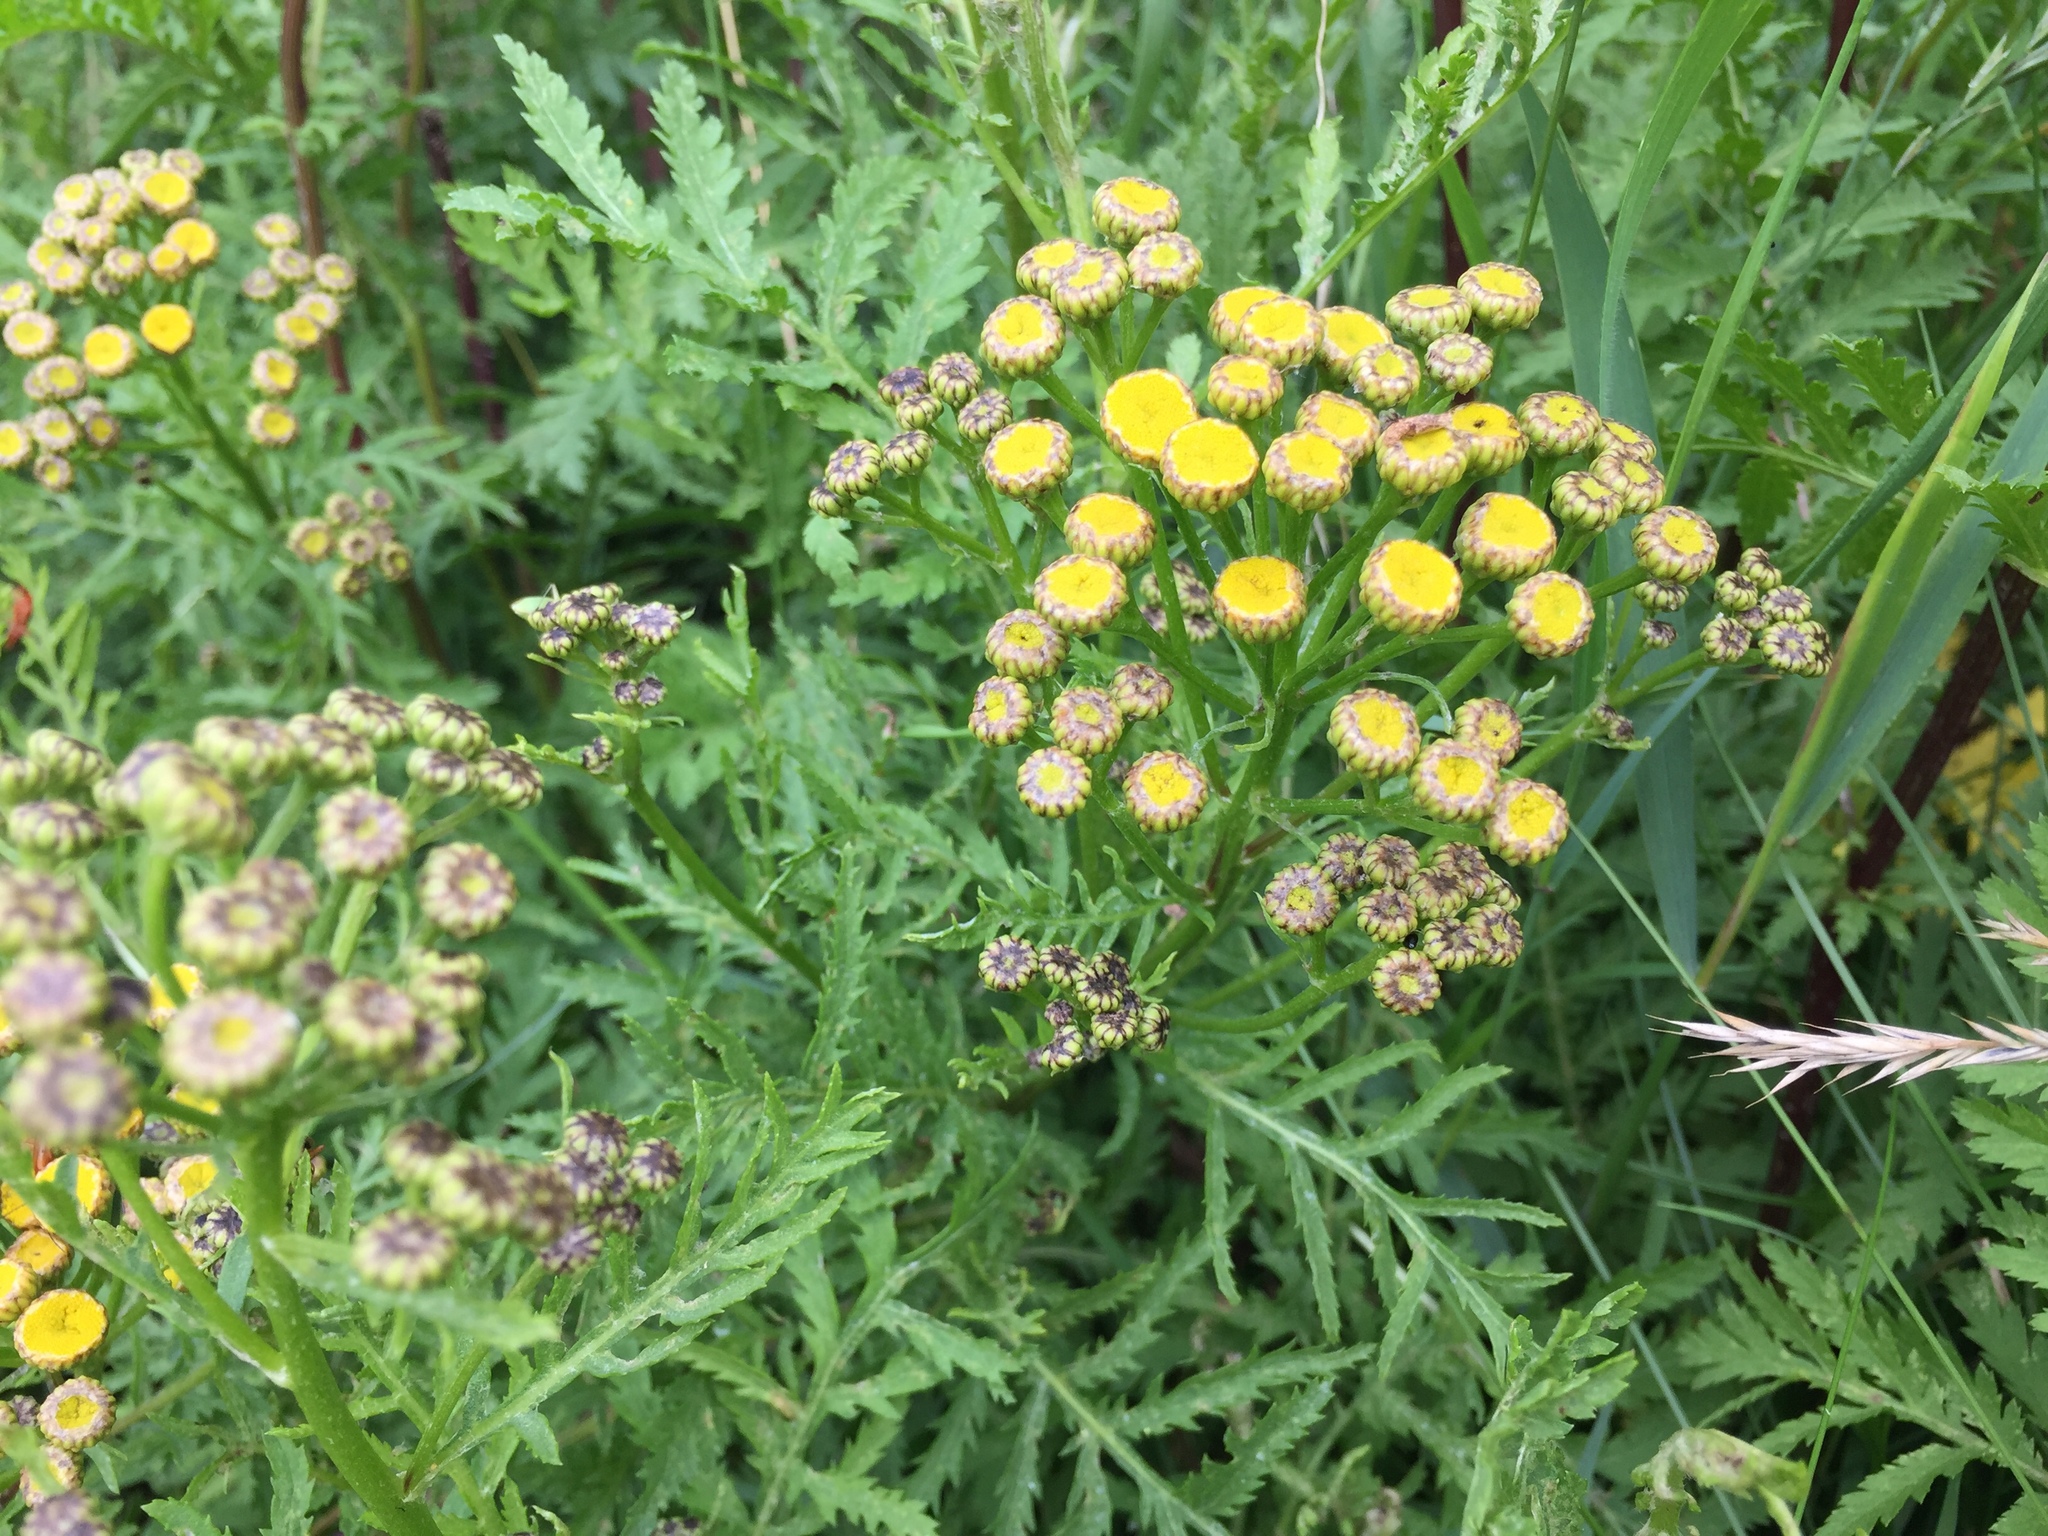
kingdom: Plantae
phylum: Tracheophyta
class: Magnoliopsida
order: Asterales
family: Asteraceae
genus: Tanacetum
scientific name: Tanacetum vulgare
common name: Common tansy
